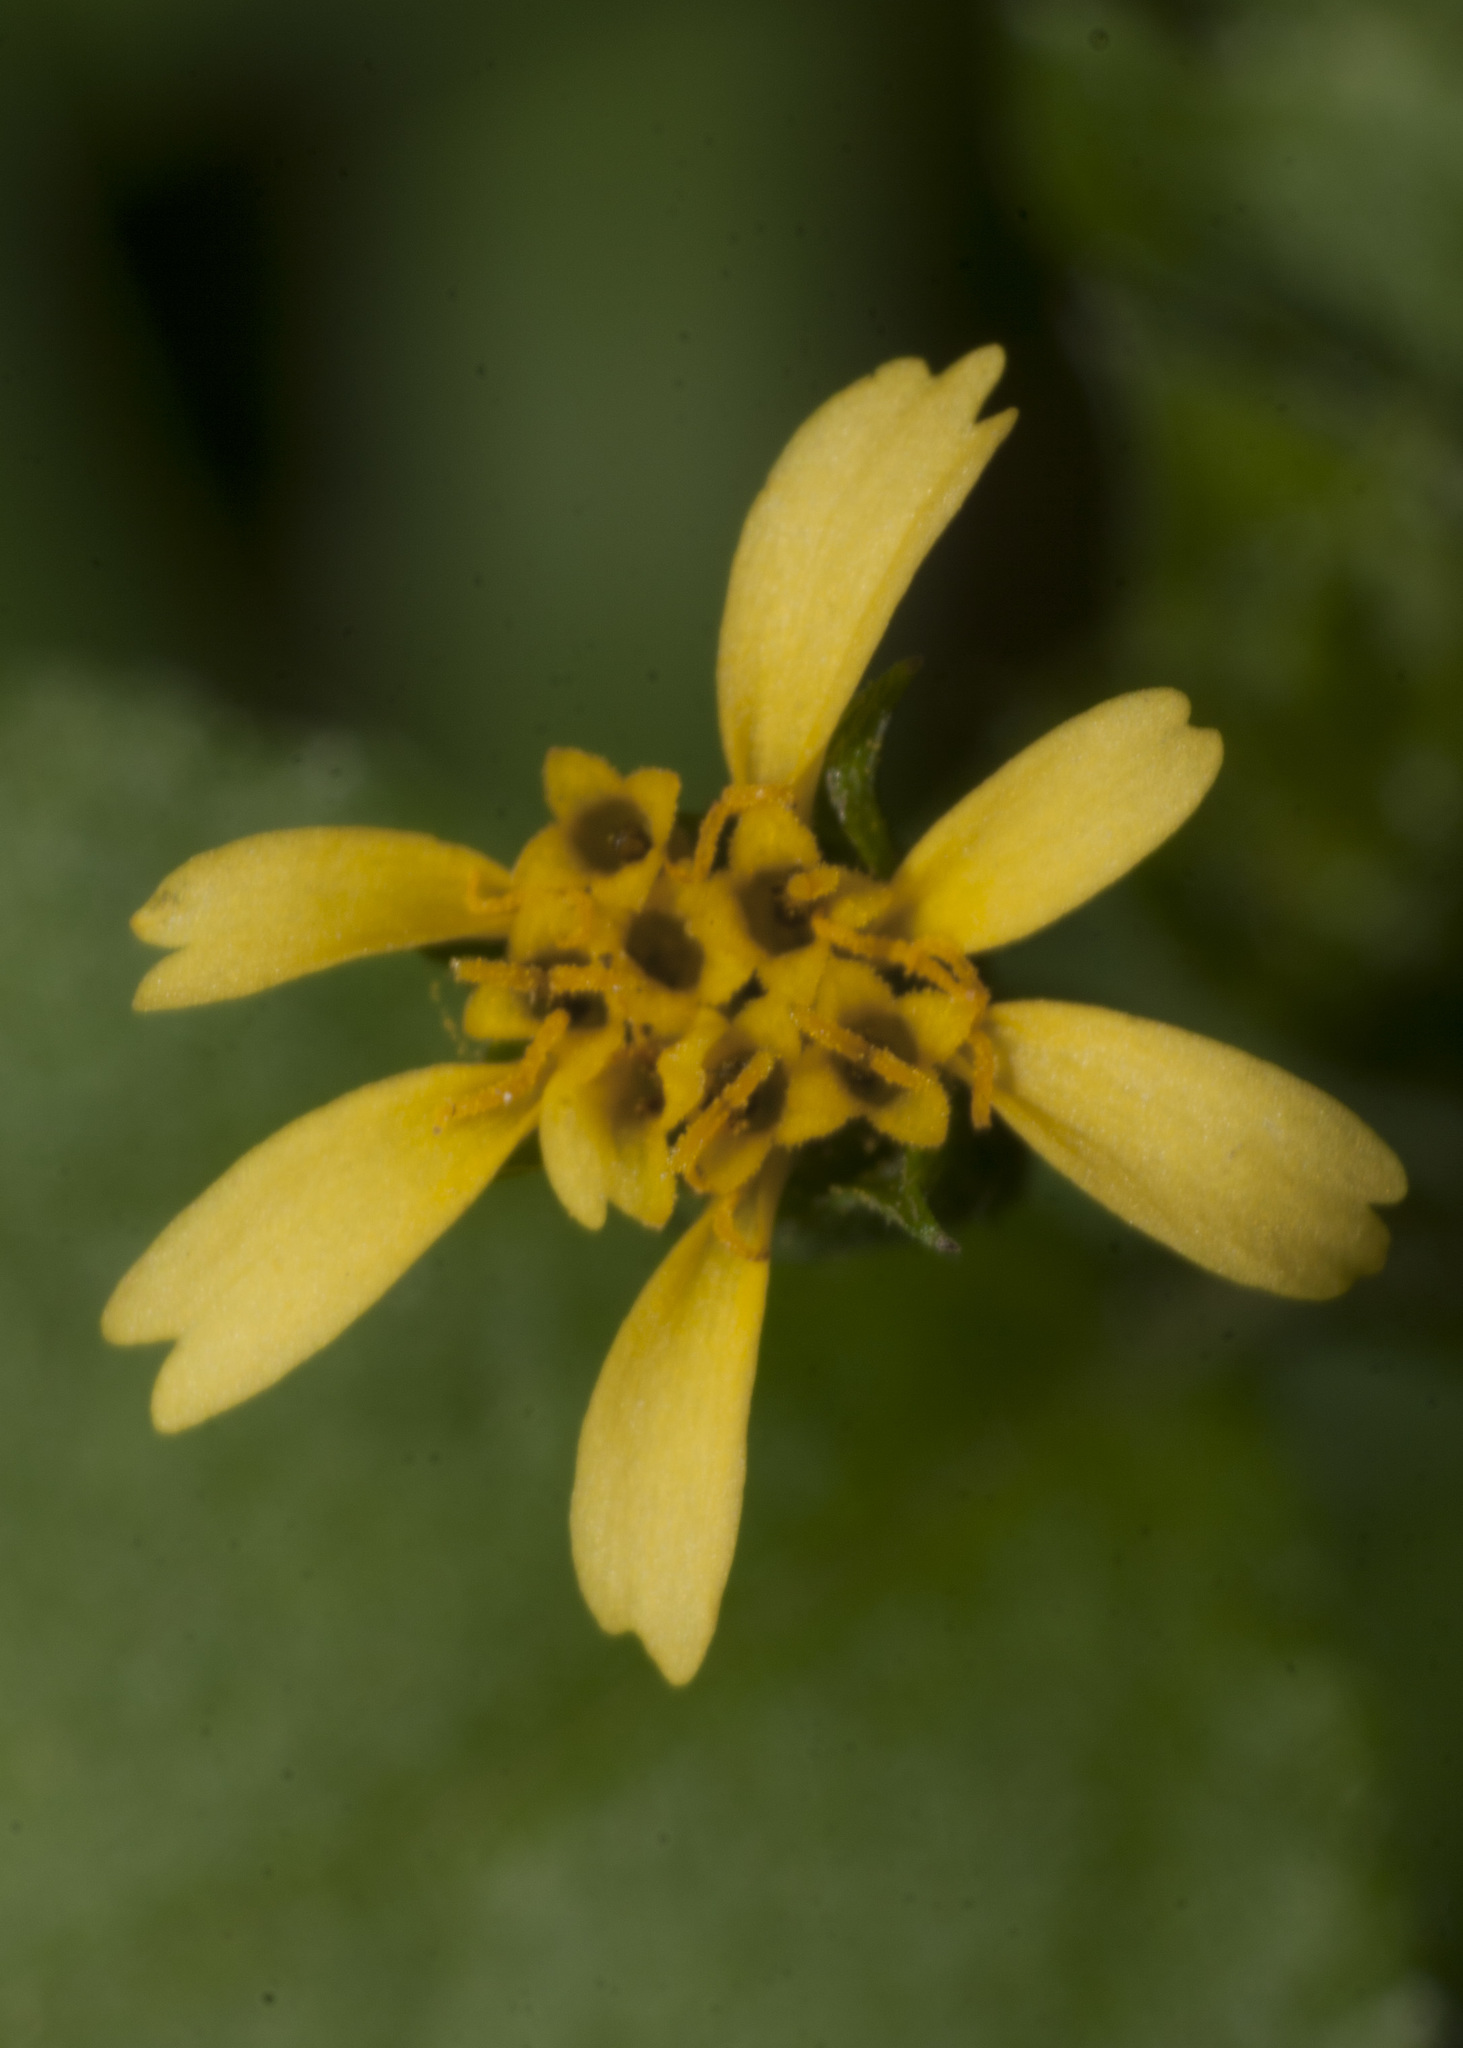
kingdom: Plantae
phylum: Tracheophyta
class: Magnoliopsida
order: Asterales
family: Asteraceae
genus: Calyptocarpus
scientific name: Calyptocarpus vialis
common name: Straggler daisy
